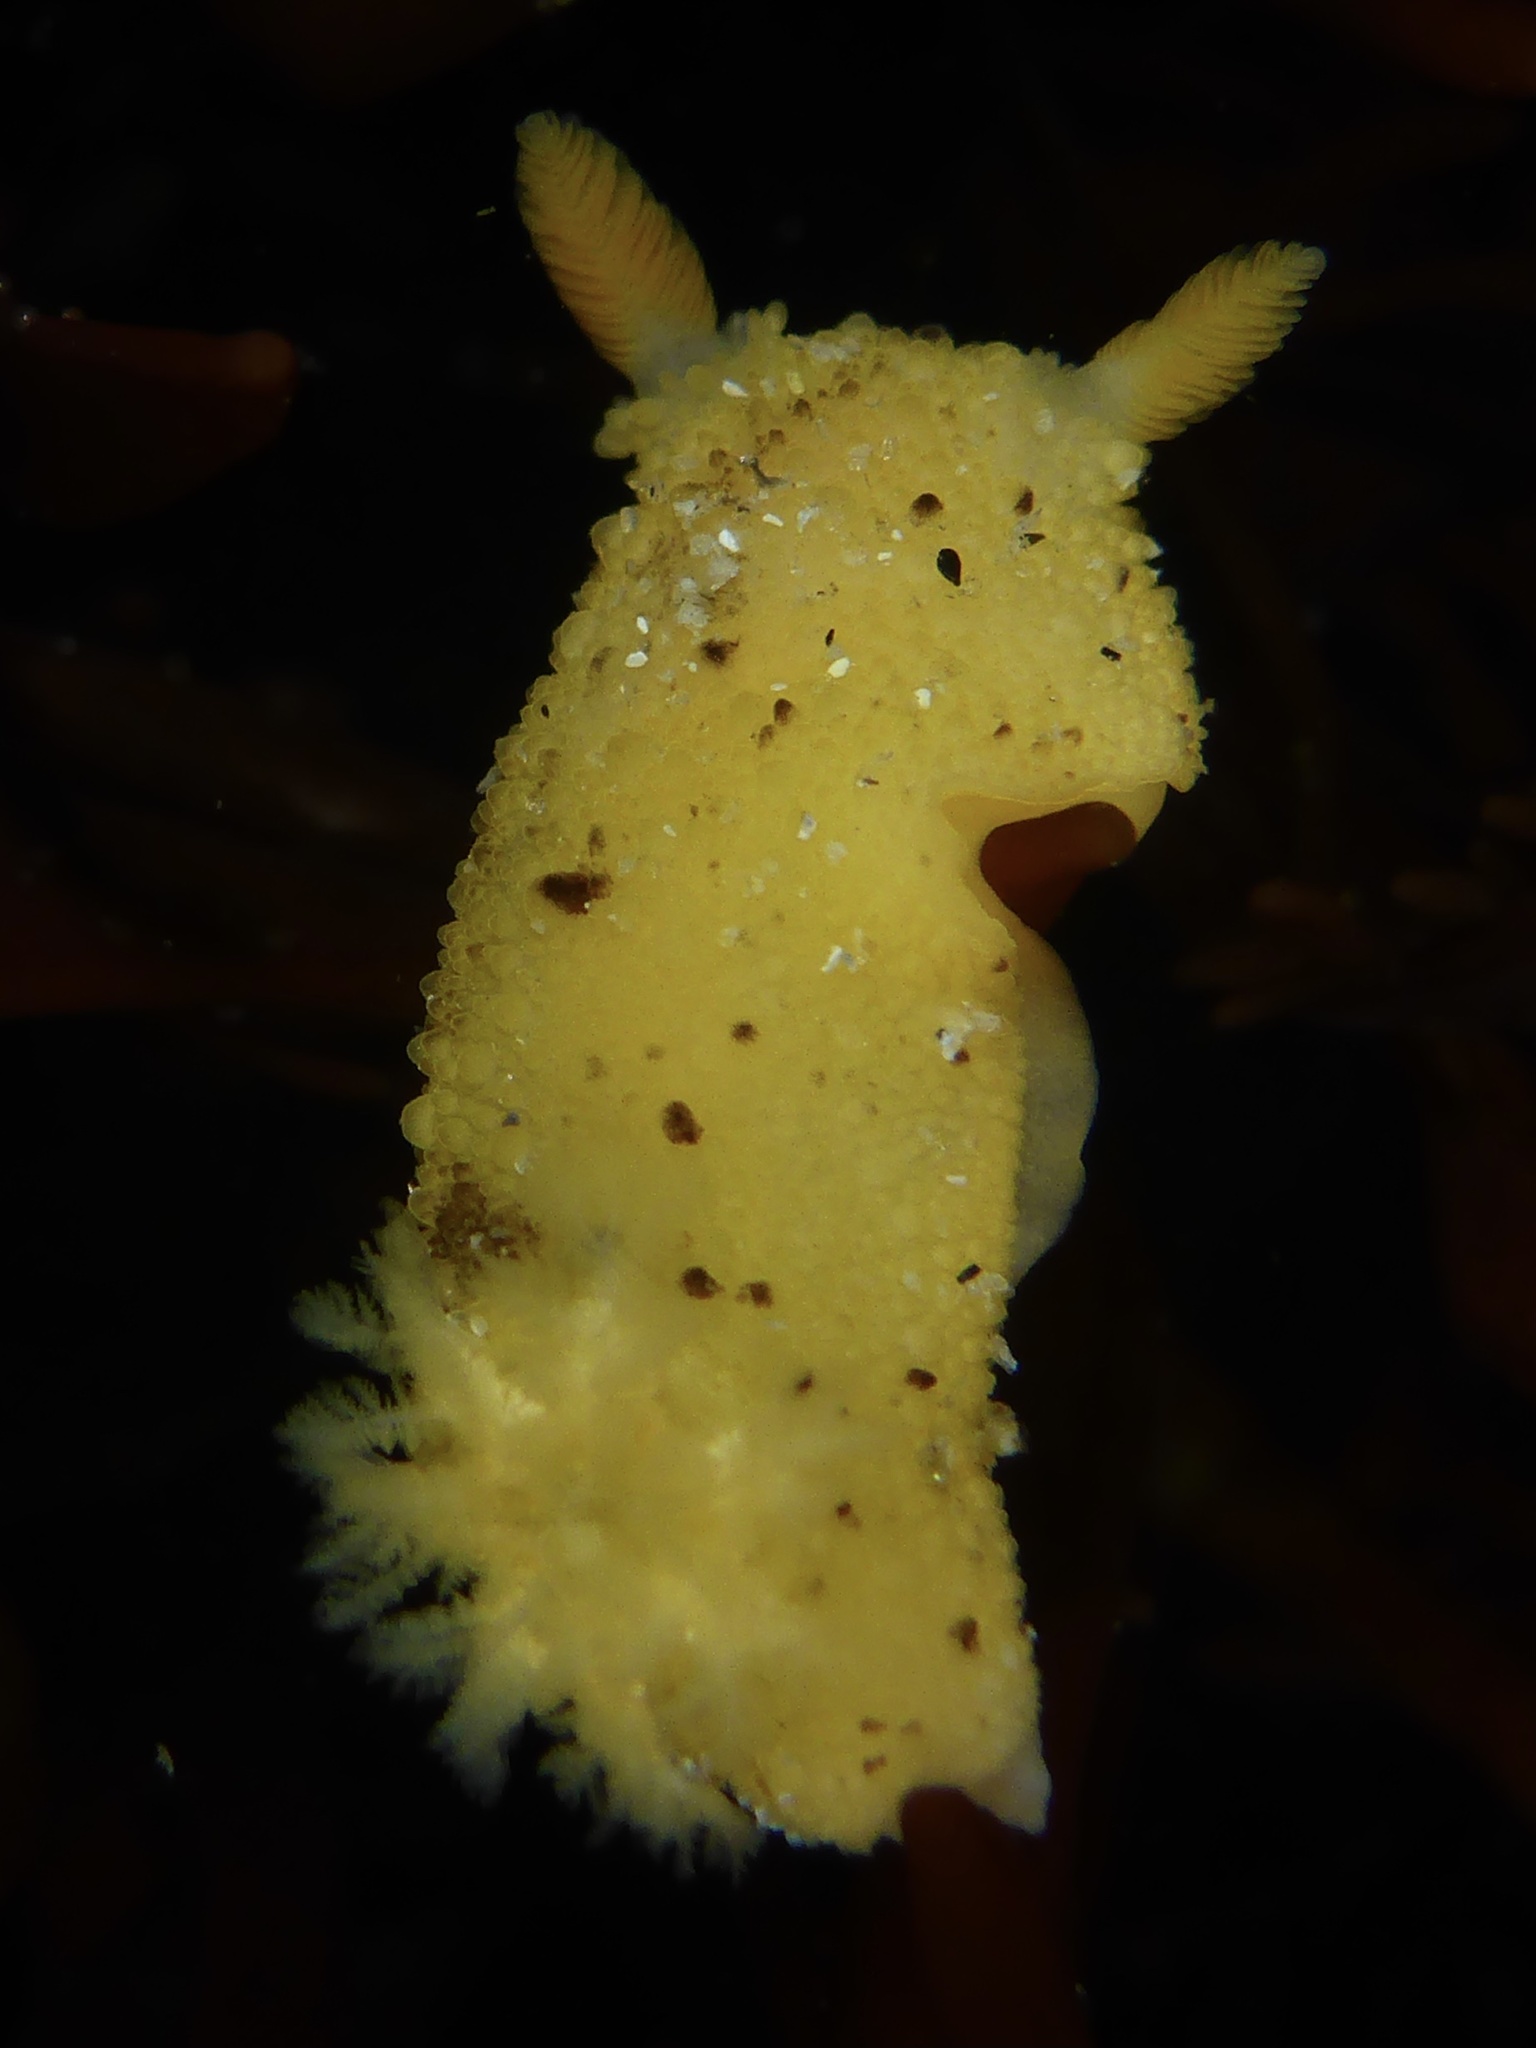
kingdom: Animalia
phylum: Mollusca
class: Gastropoda
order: Nudibranchia
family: Dorididae
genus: Doris
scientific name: Doris montereyensis
